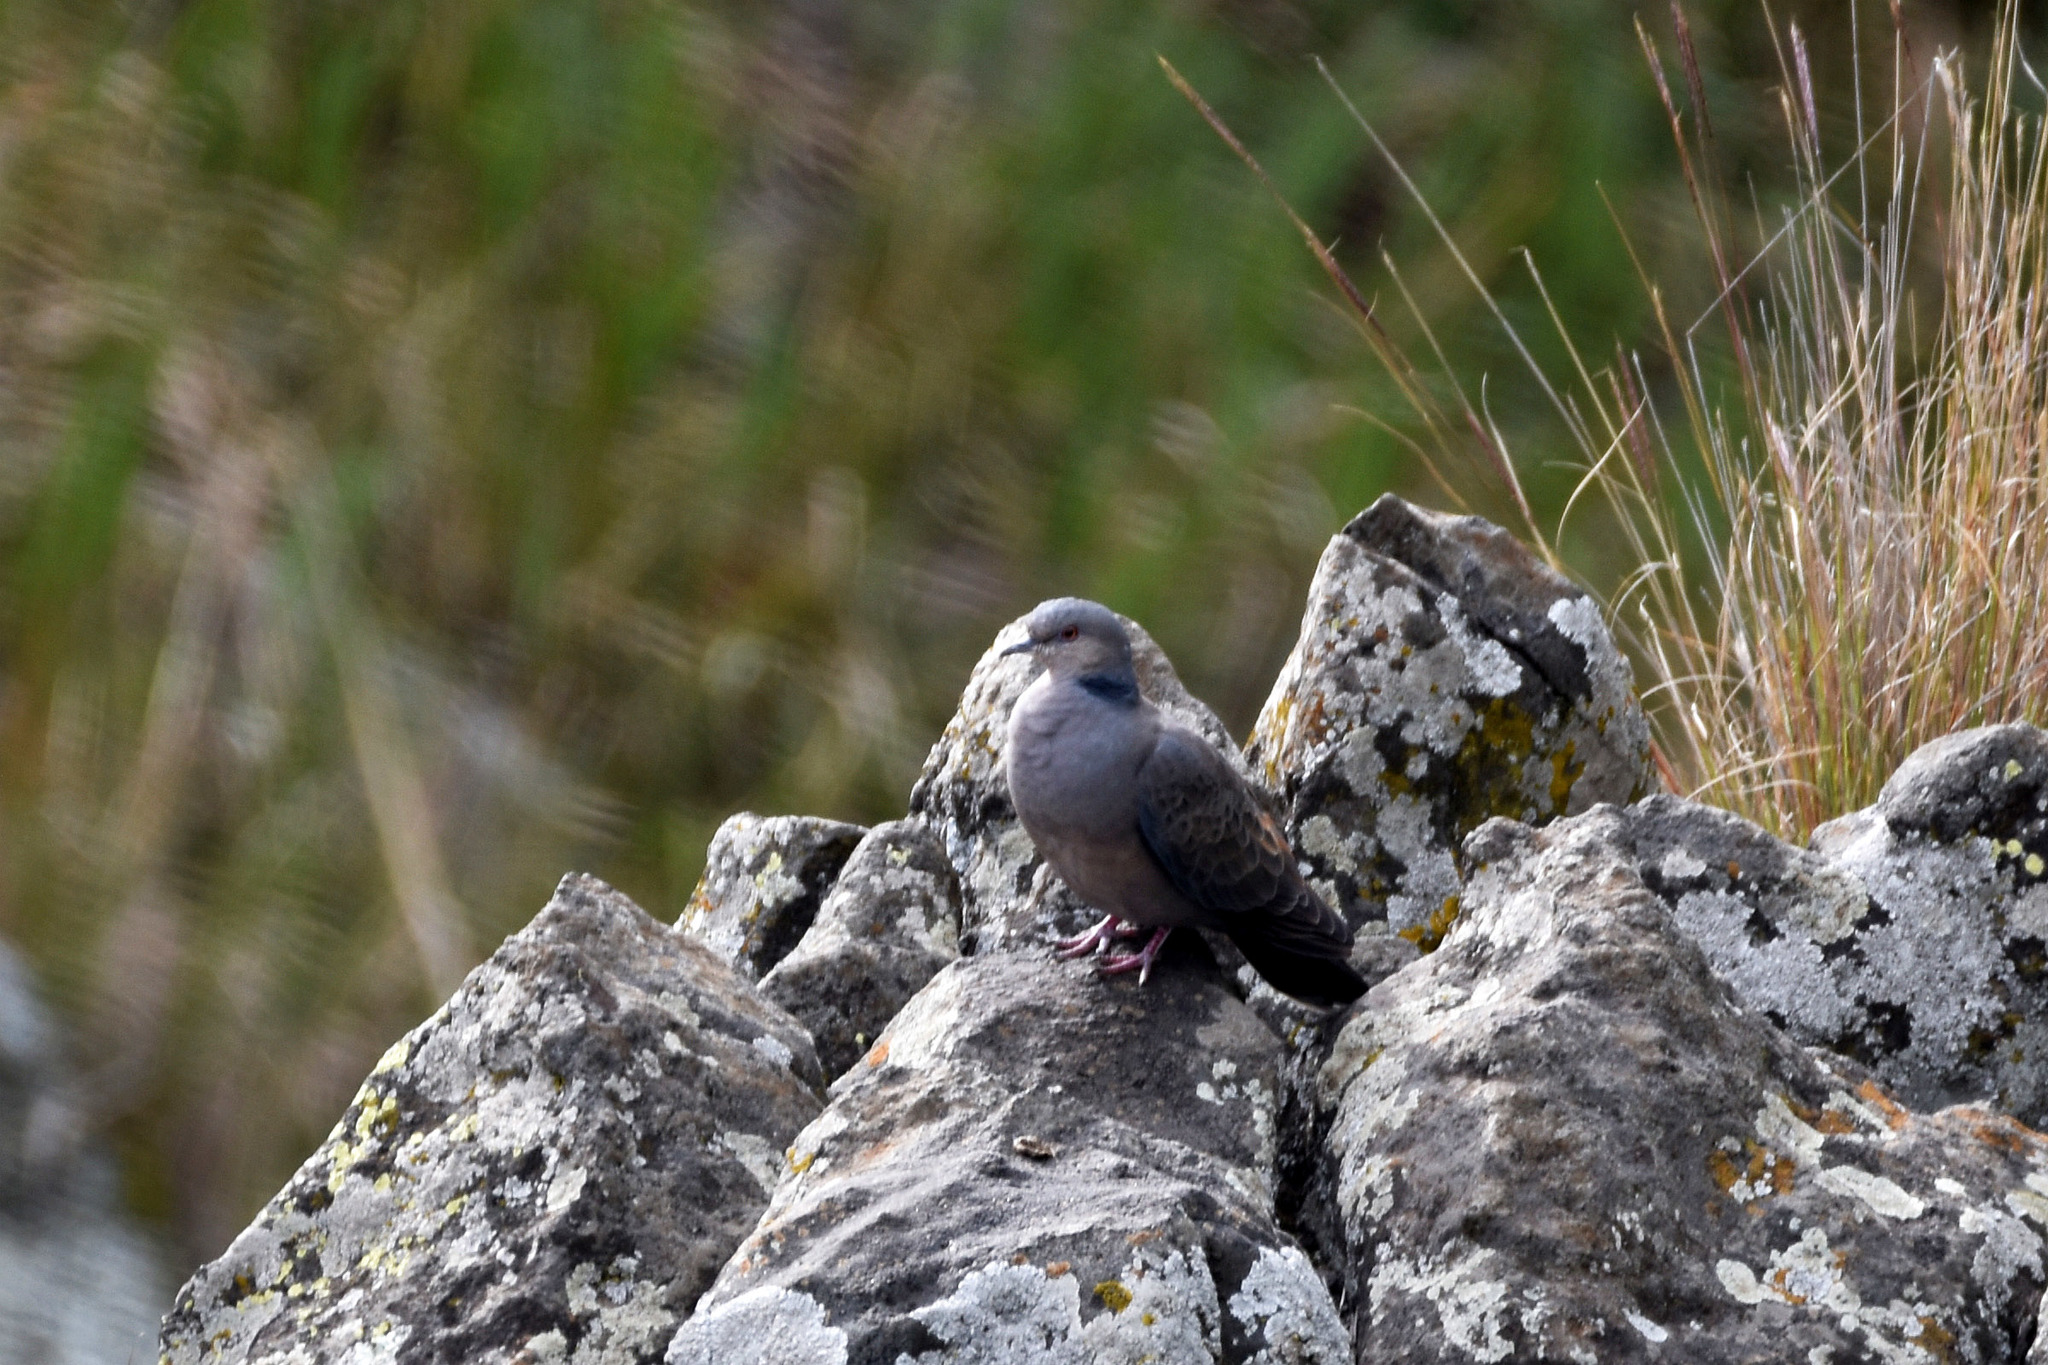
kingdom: Animalia
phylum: Chordata
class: Aves
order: Columbiformes
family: Columbidae
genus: Streptopelia
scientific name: Streptopelia lugens
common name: Dusky turtle dove
